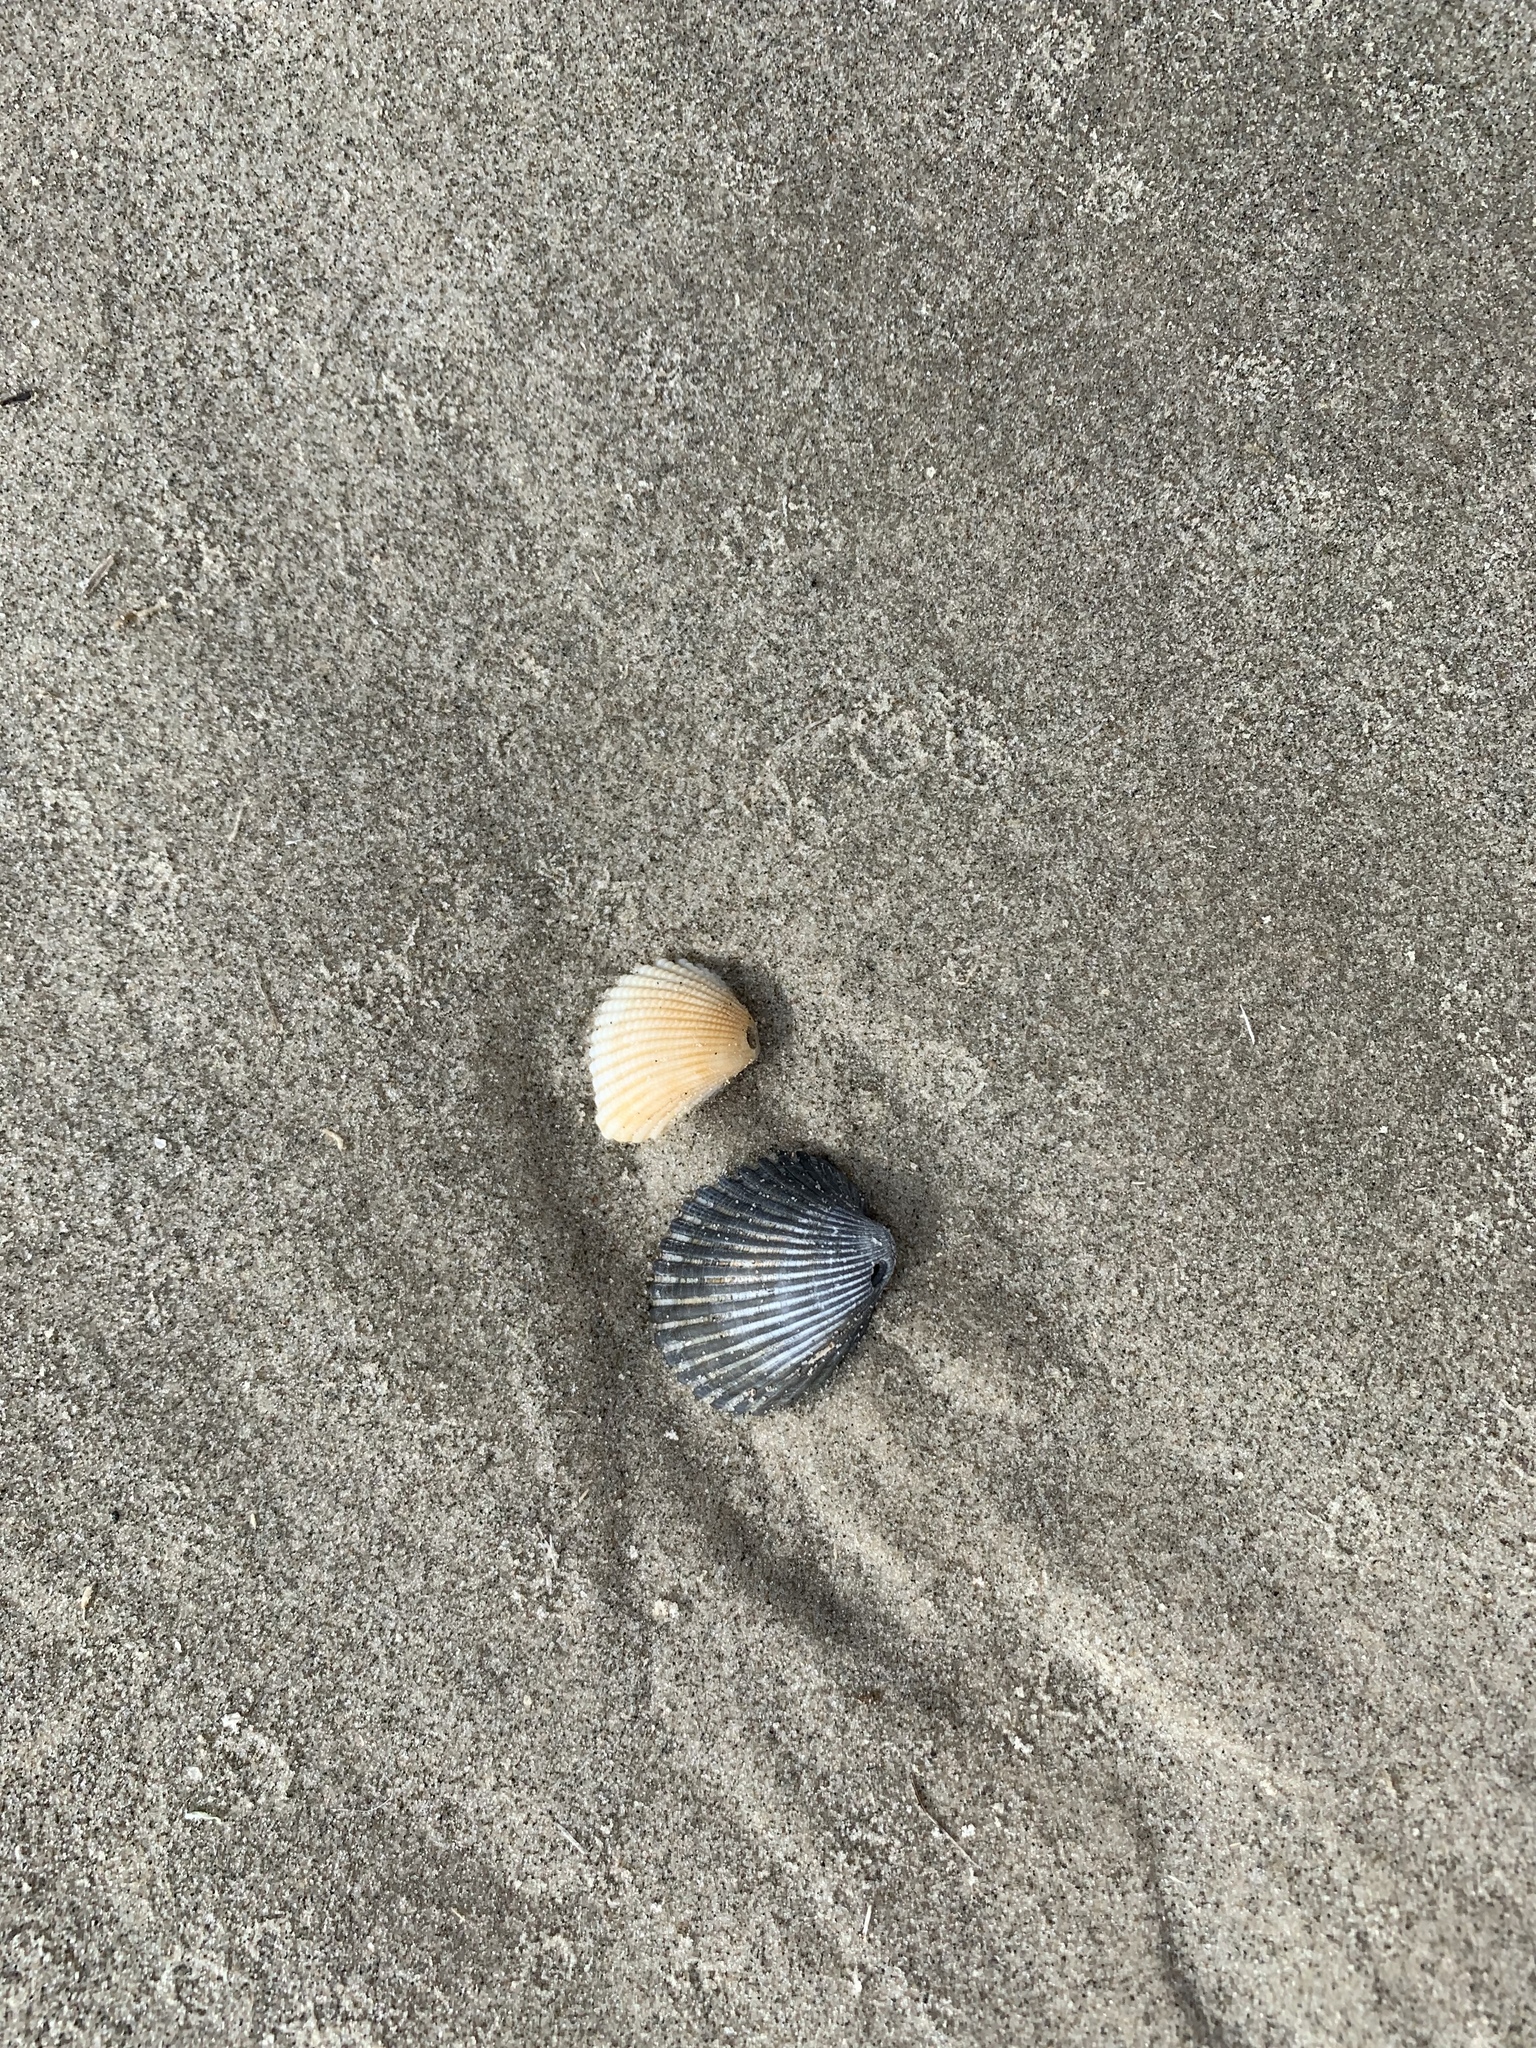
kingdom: Animalia
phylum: Mollusca
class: Bivalvia
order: Arcida
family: Arcidae
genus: Anadara
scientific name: Anadara chemnitzii
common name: Chemnitz's triangular ark
